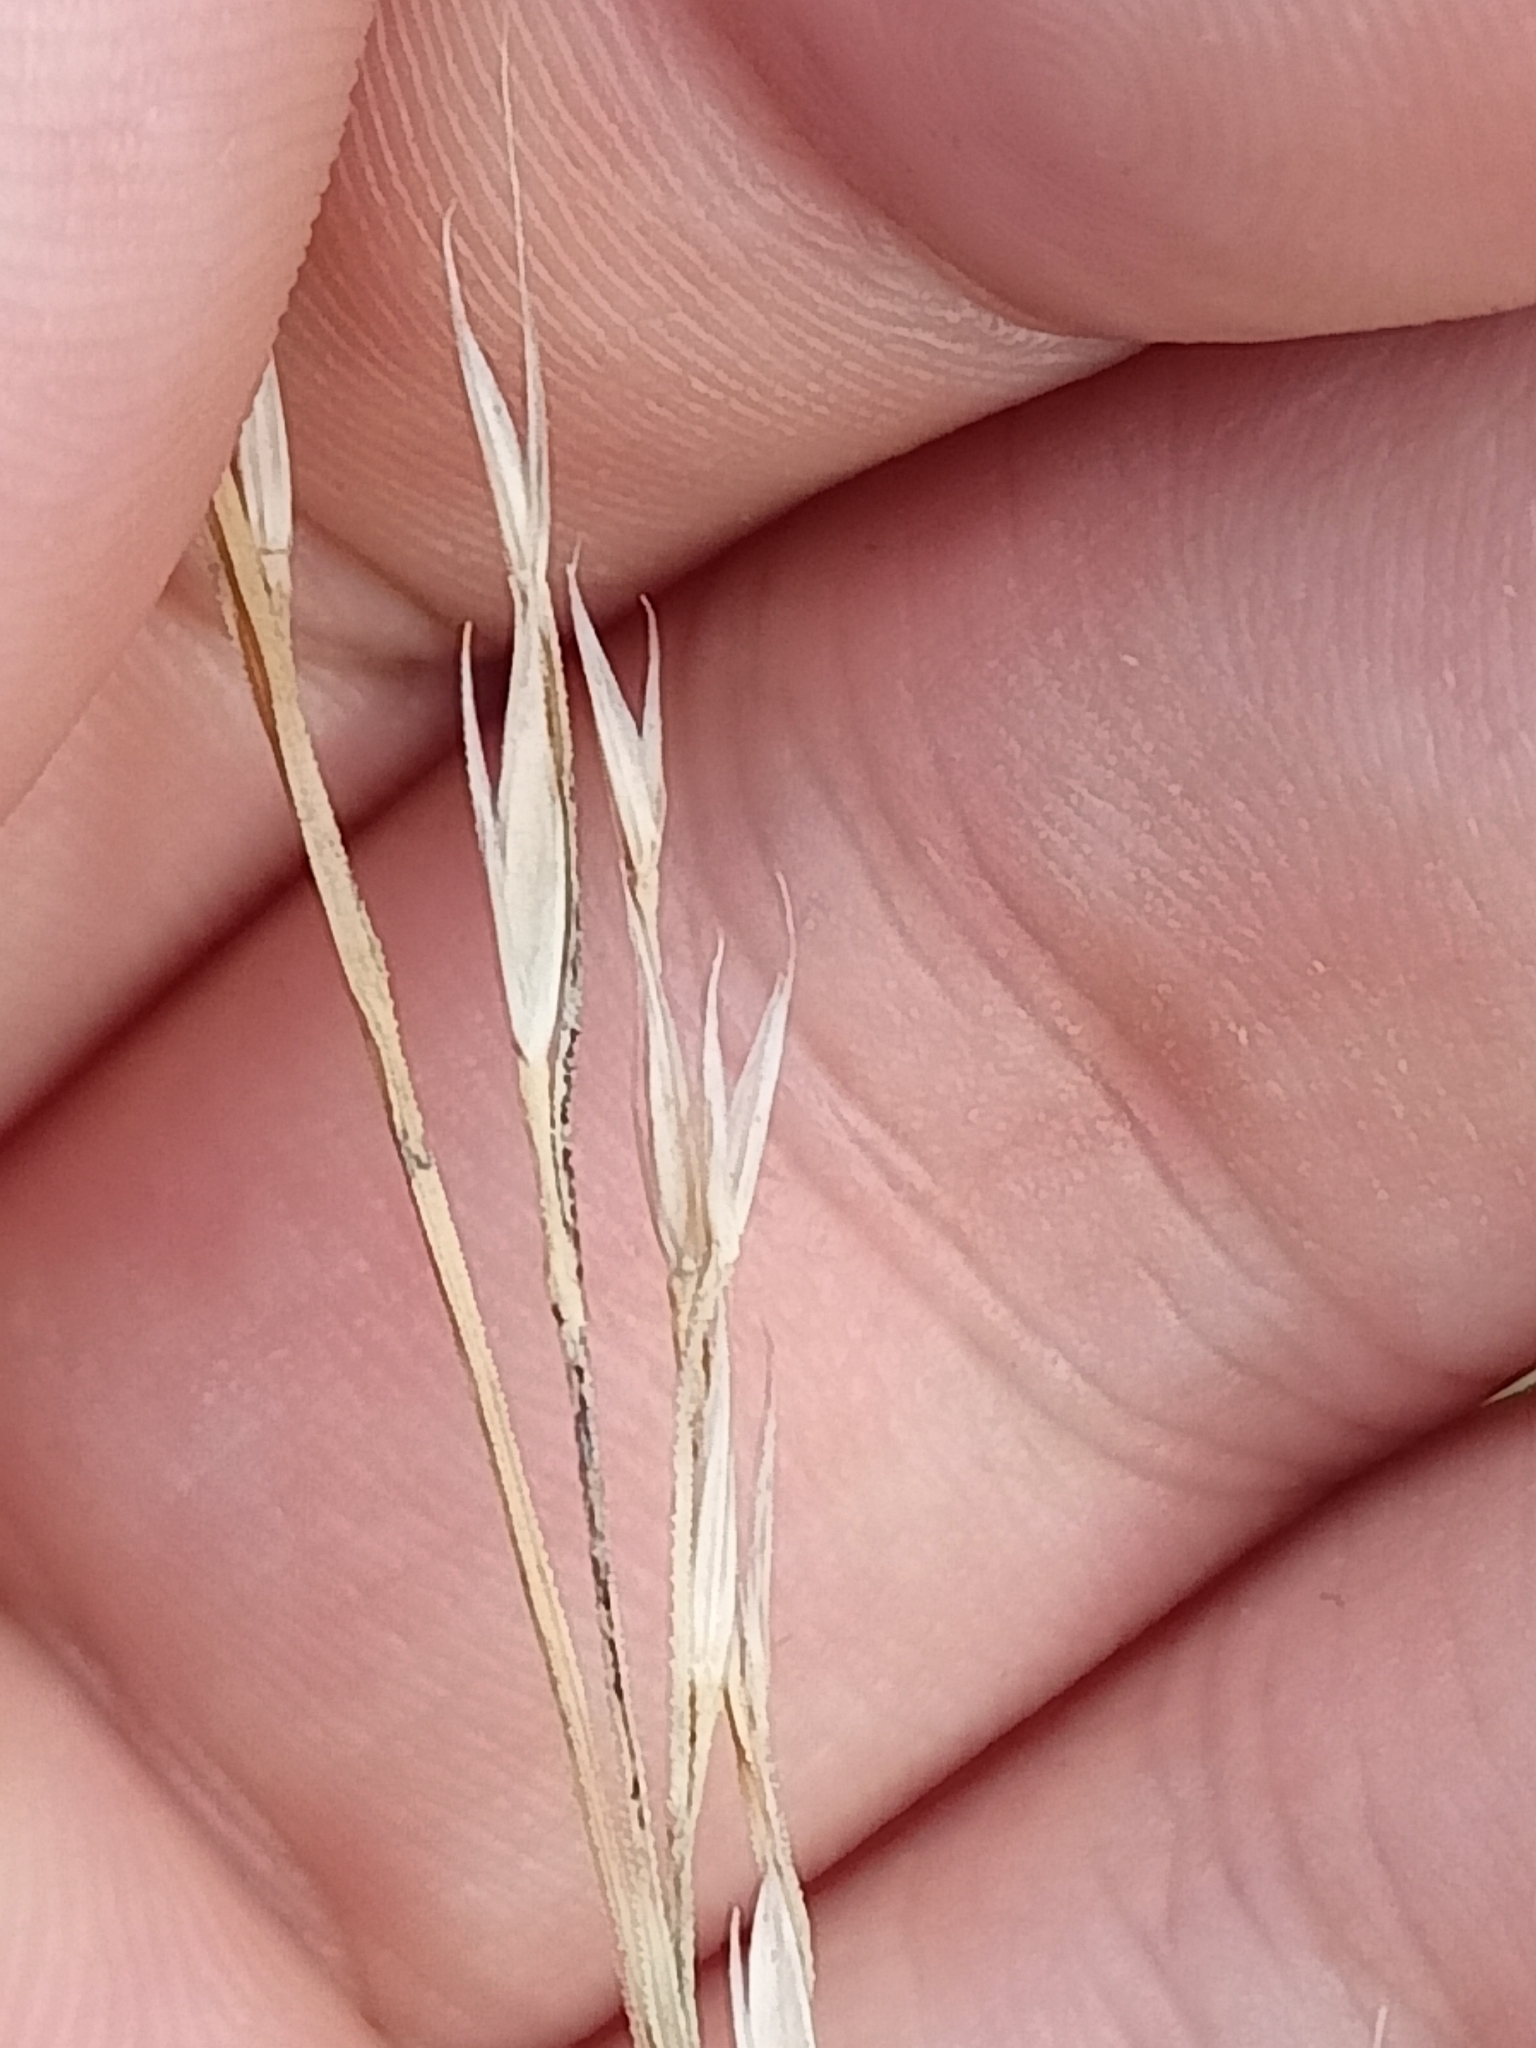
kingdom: Plantae
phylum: Tracheophyta
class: Liliopsida
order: Poales
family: Poaceae
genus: Lolium
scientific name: Lolium giganteum
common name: Giant fescue
